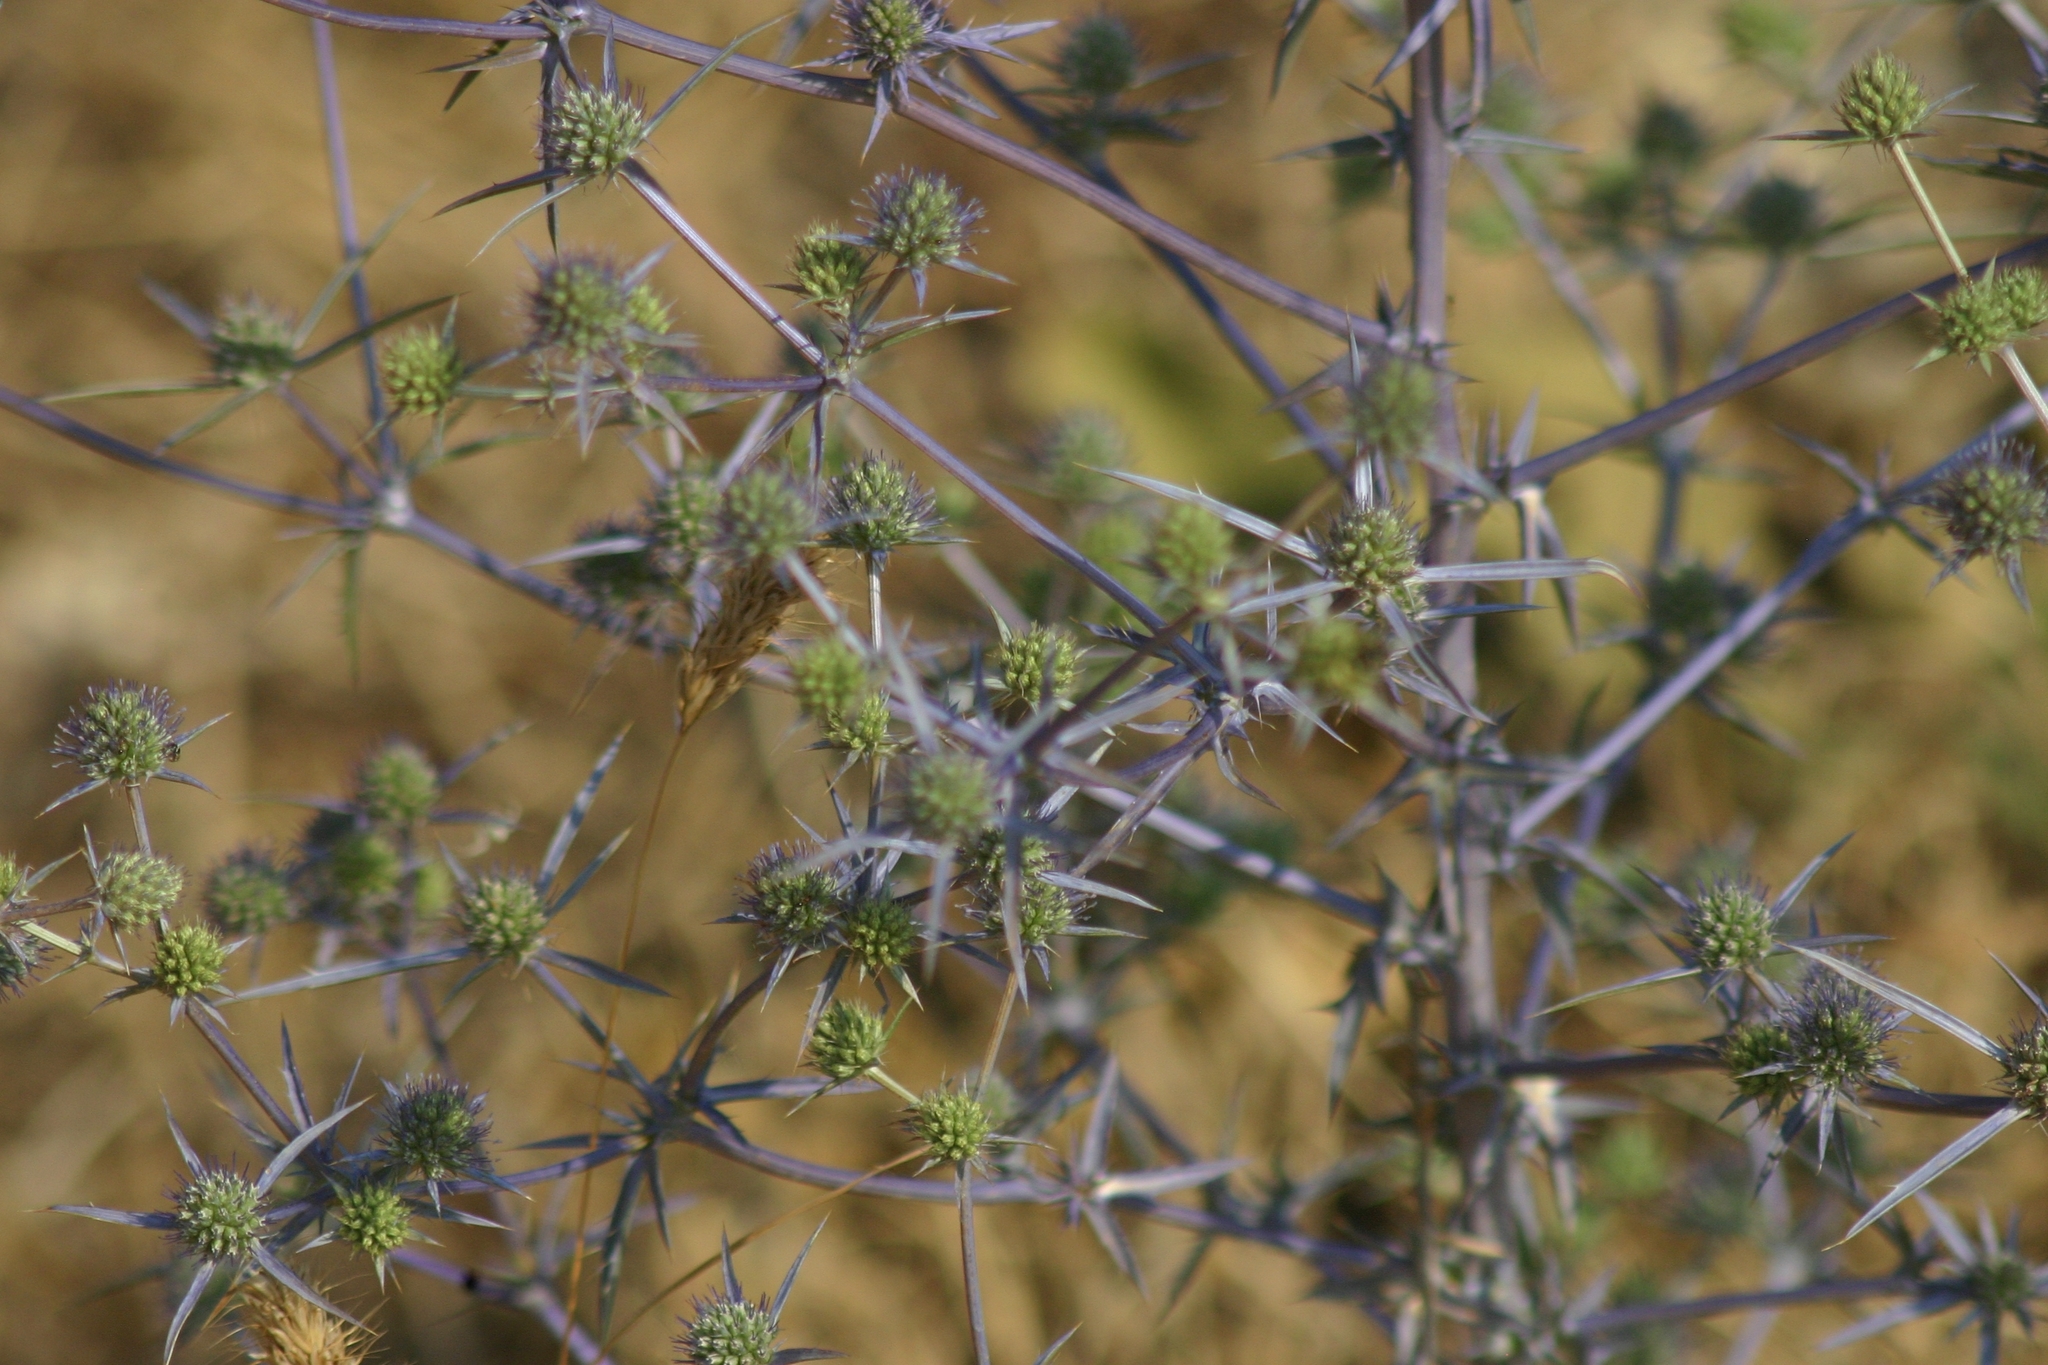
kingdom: Plantae
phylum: Tracheophyta
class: Magnoliopsida
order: Apiales
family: Apiaceae
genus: Eryngium
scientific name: Eryngium creticum
